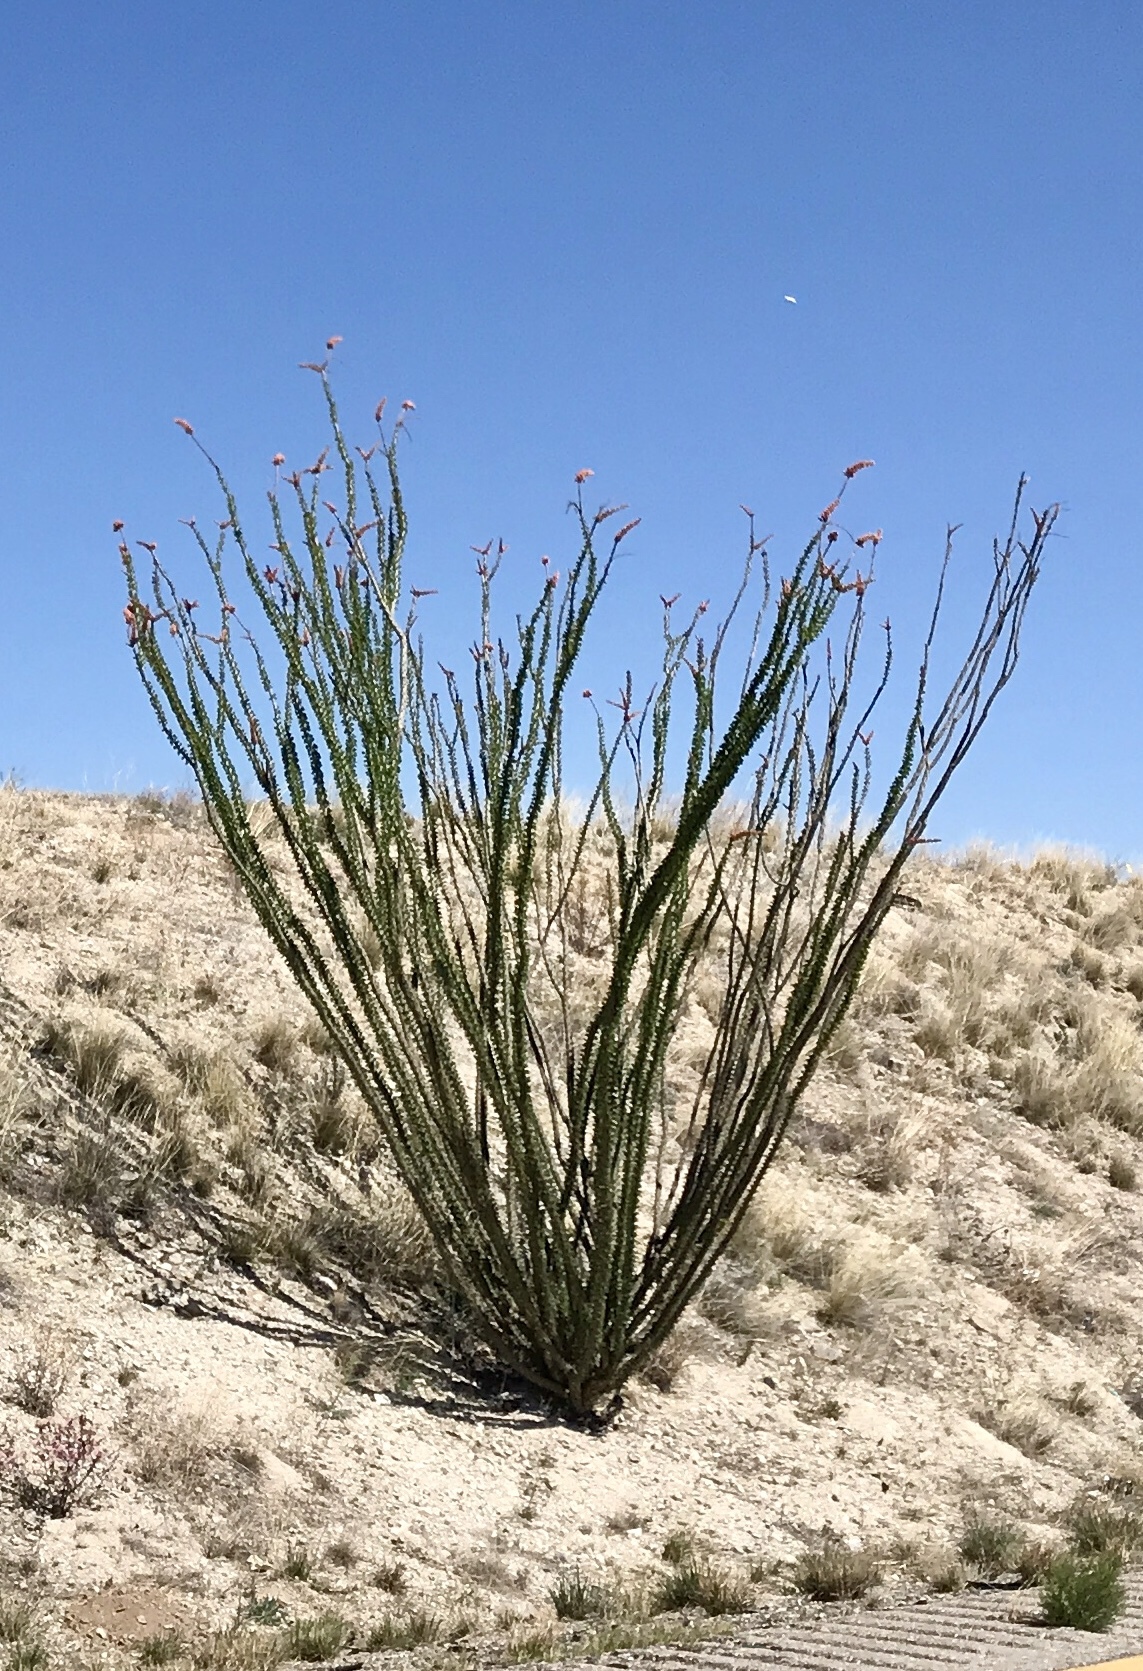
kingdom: Plantae
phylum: Tracheophyta
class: Magnoliopsida
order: Ericales
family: Fouquieriaceae
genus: Fouquieria
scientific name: Fouquieria splendens
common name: Vine-cactus
